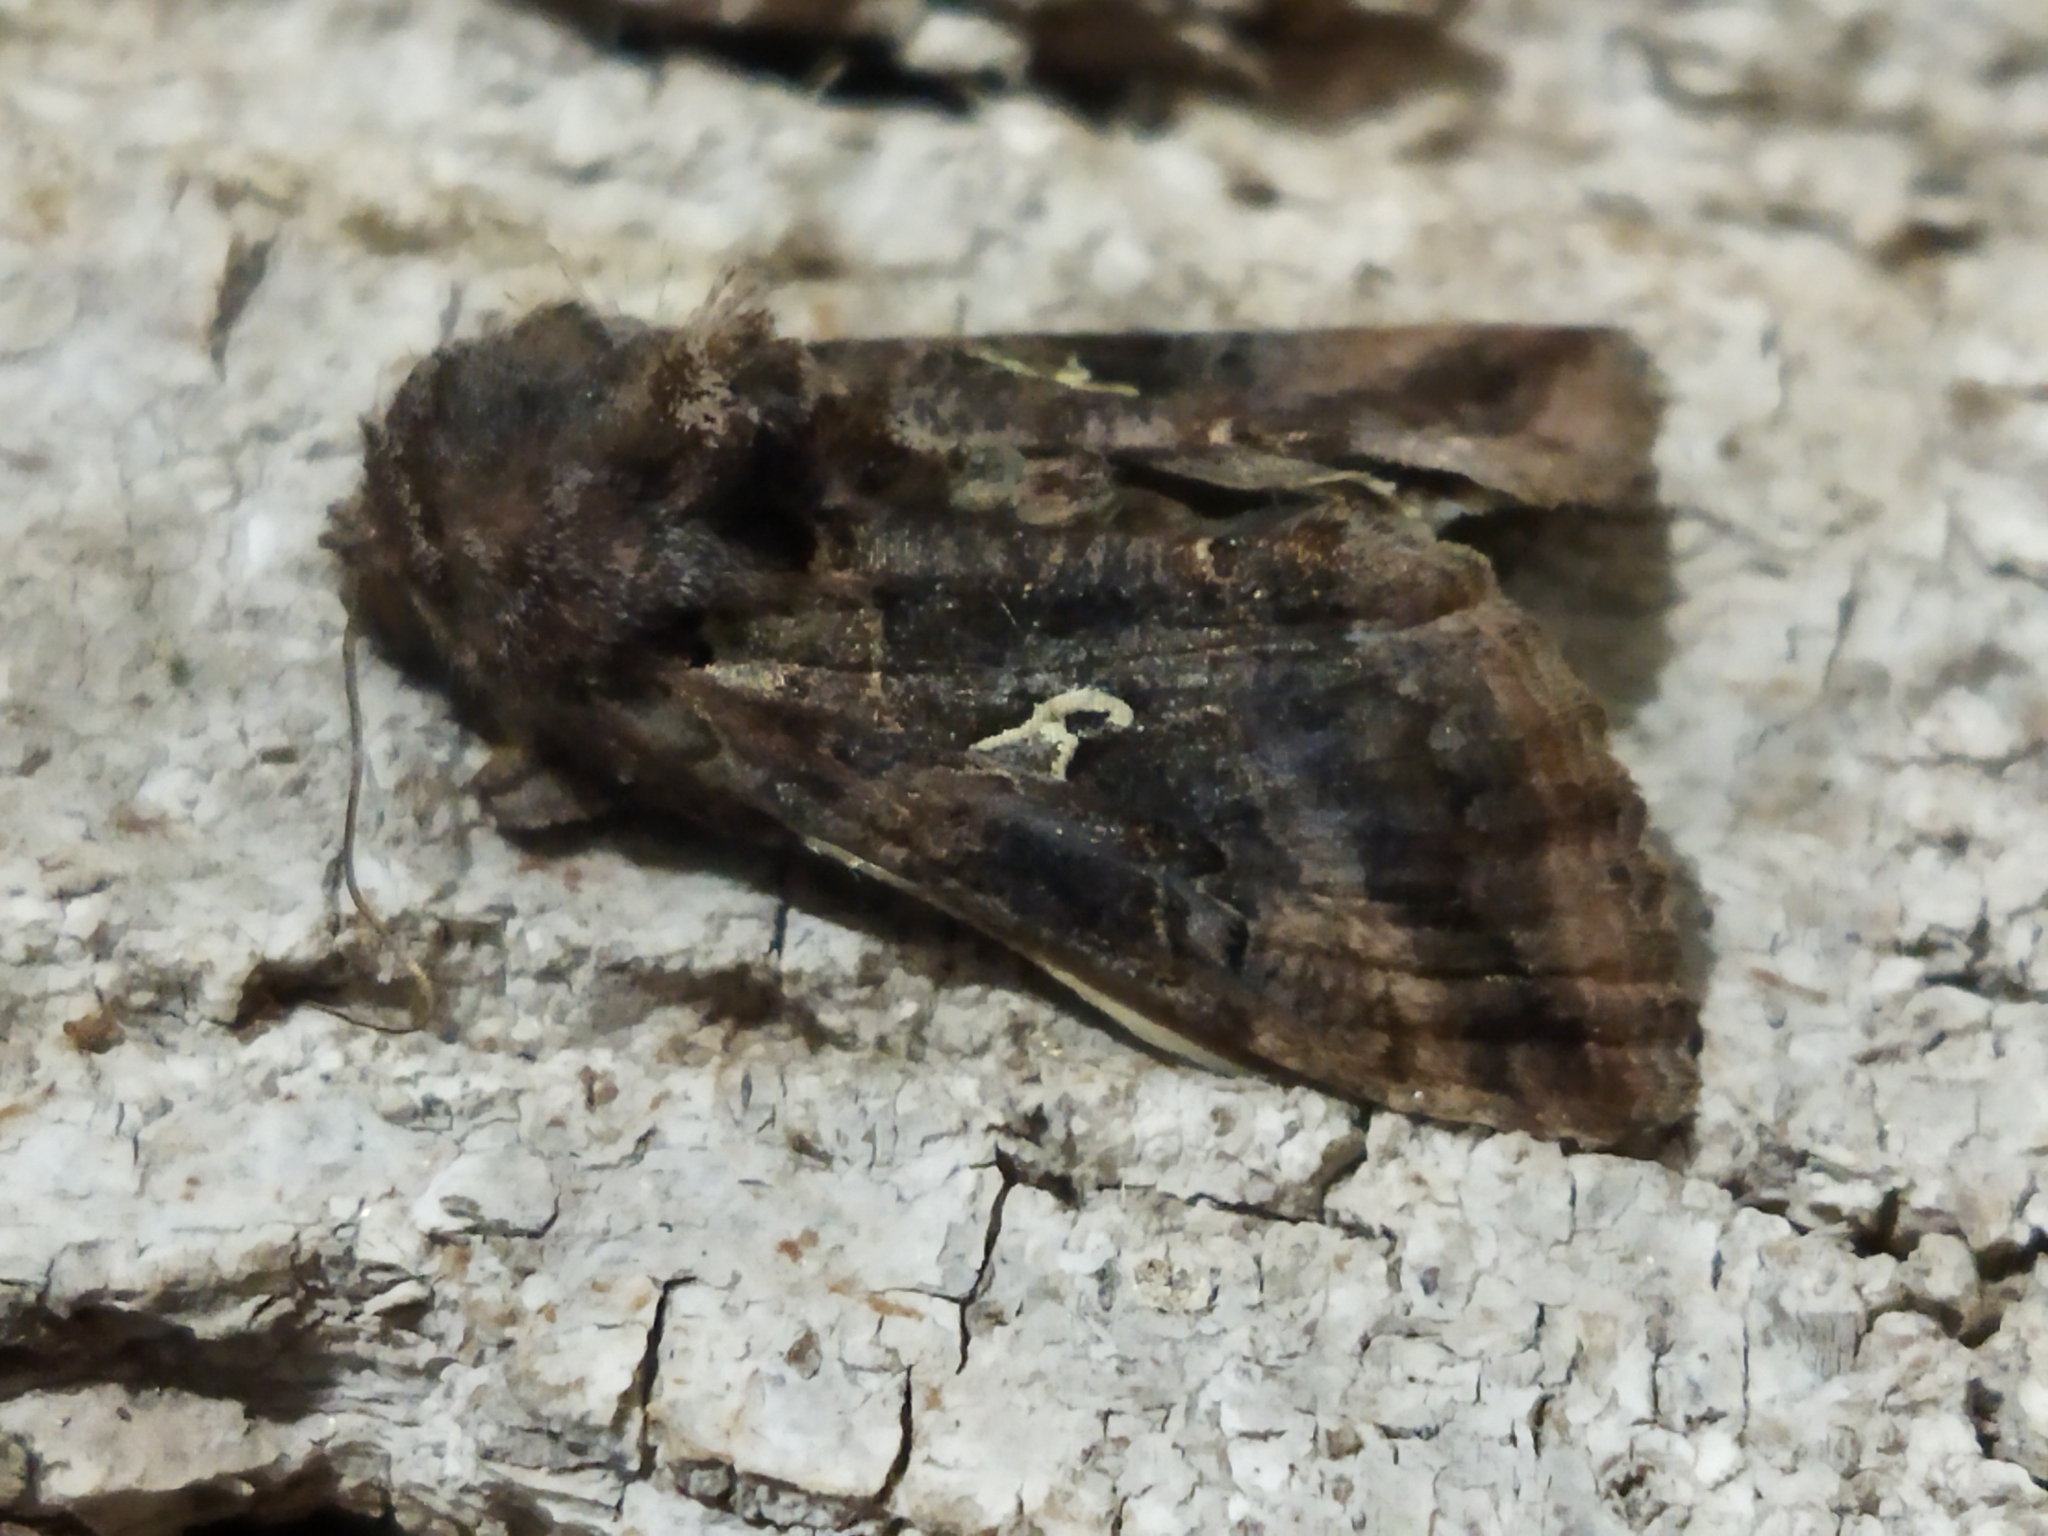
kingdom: Animalia
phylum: Arthropoda
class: Insecta
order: Lepidoptera
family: Noctuidae
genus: Autographa
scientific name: Autographa gamma
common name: Silver y
